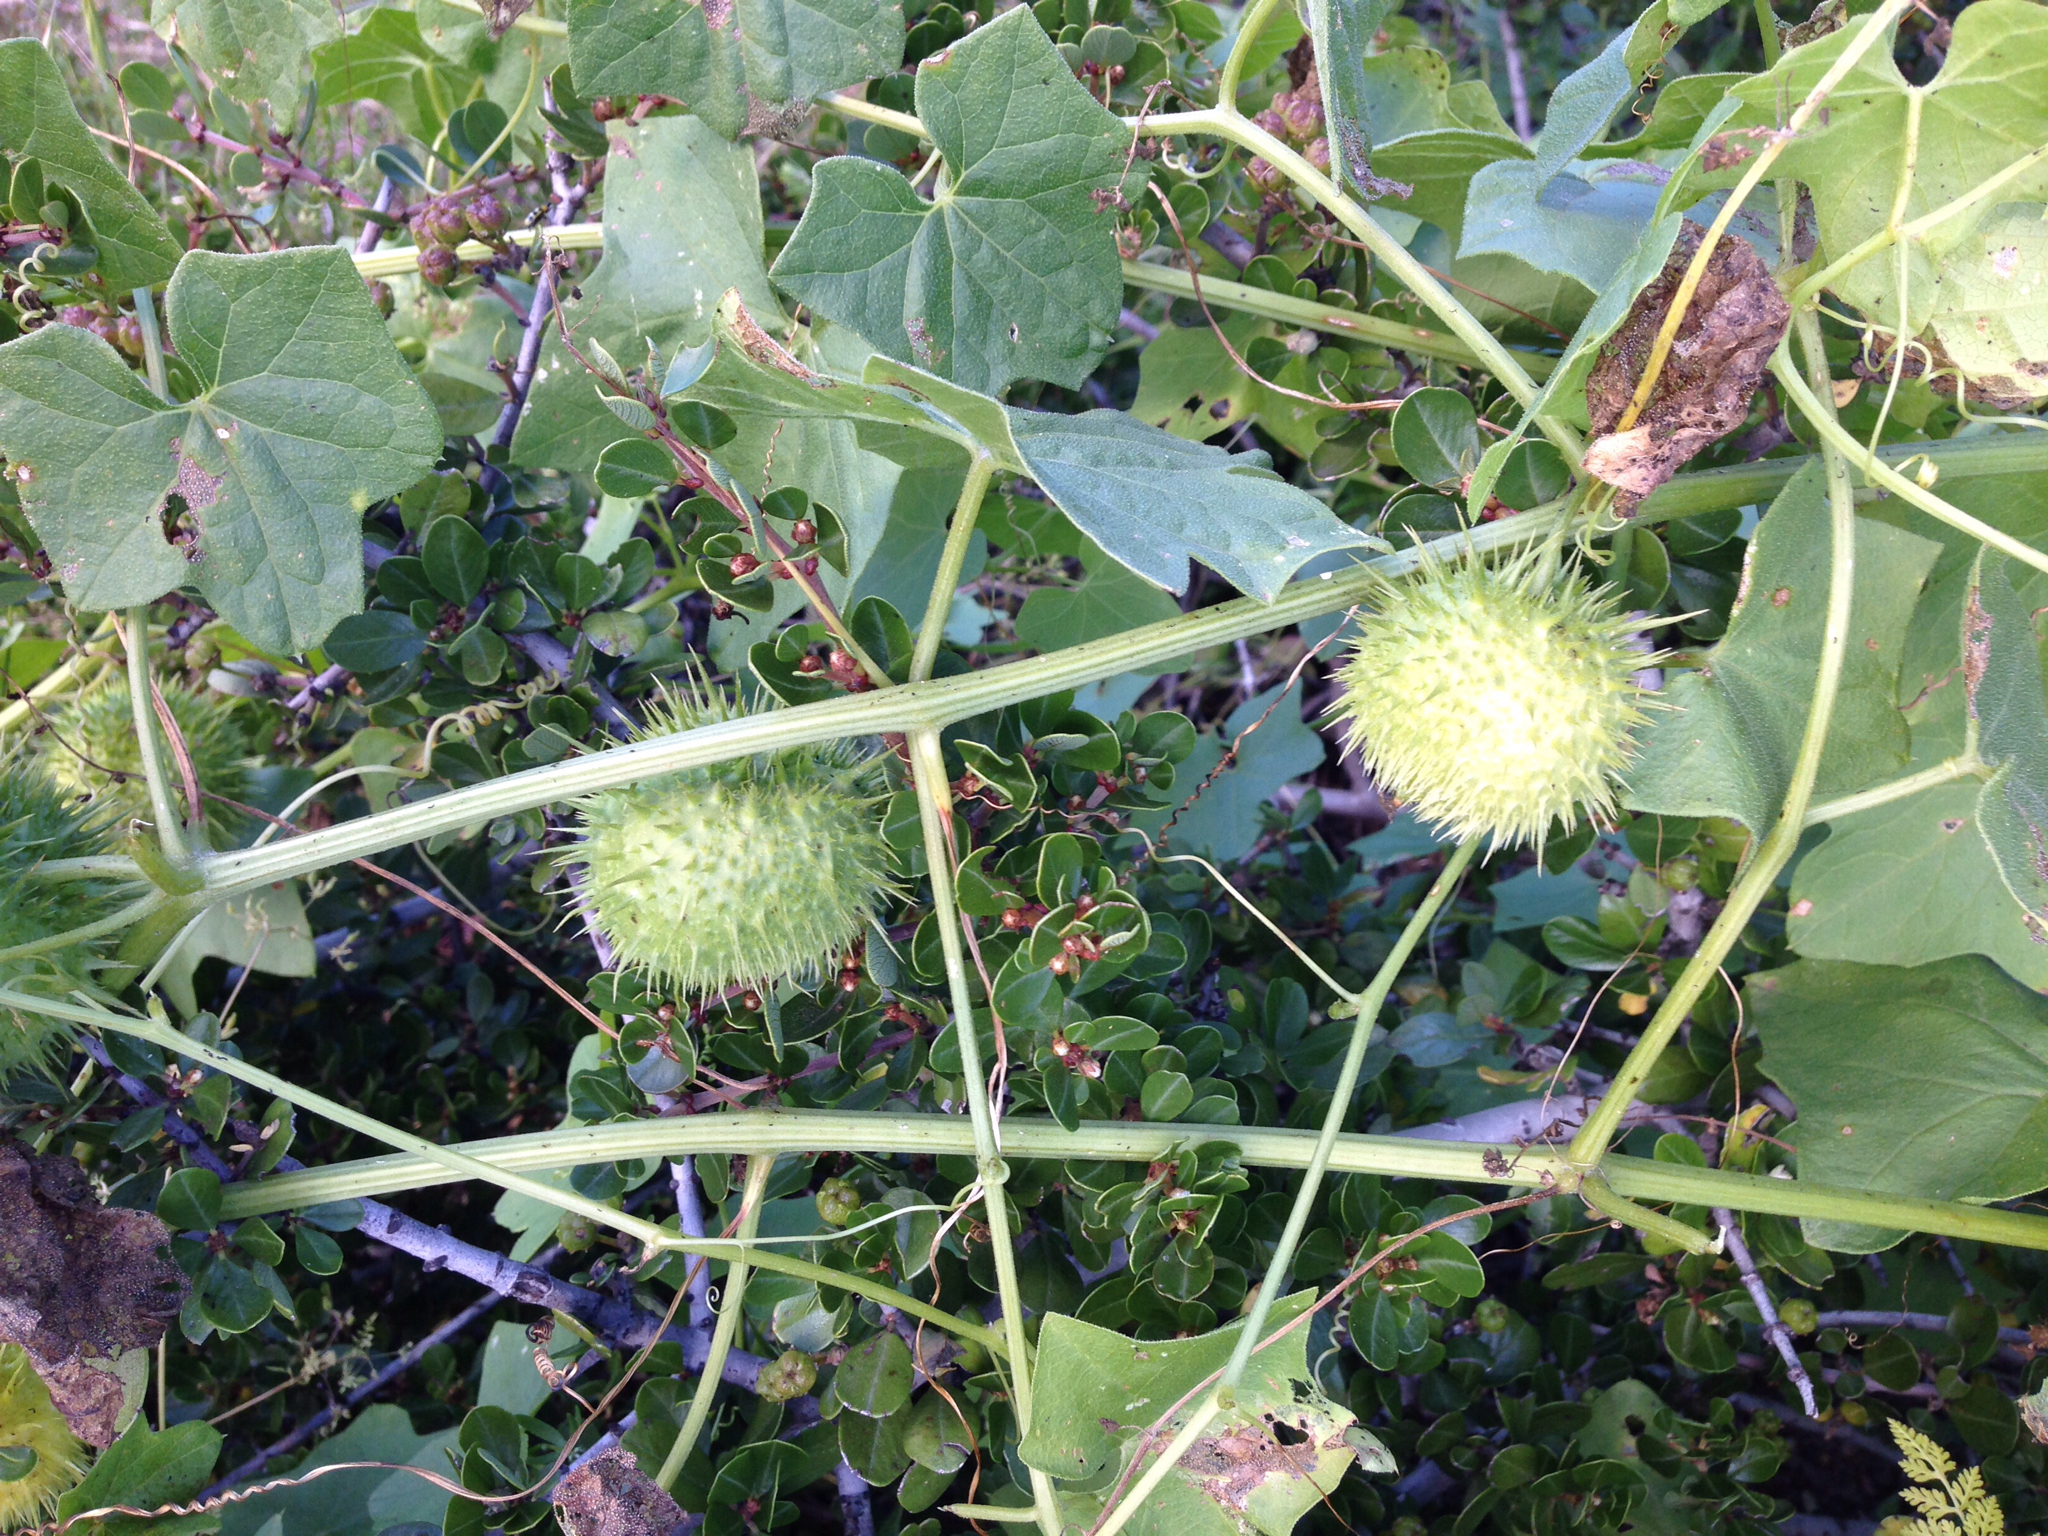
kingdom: Plantae
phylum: Tracheophyta
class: Magnoliopsida
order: Cucurbitales
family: Cucurbitaceae
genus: Marah
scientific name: Marah fabacea
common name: California manroot
